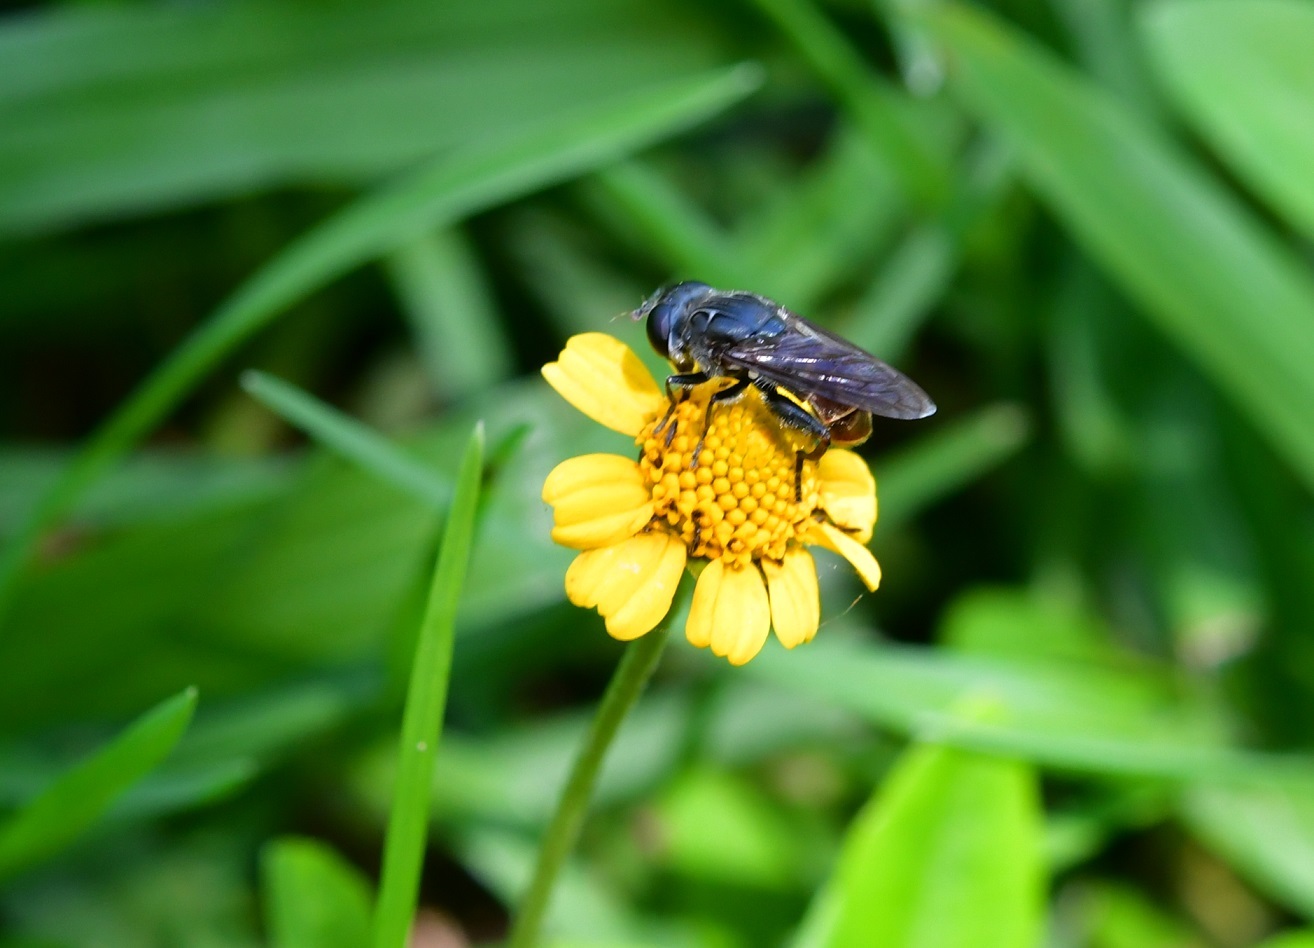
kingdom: Animalia
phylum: Arthropoda
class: Insecta
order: Diptera
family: Syrphidae
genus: Asemosyrphus
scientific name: Asemosyrphus
